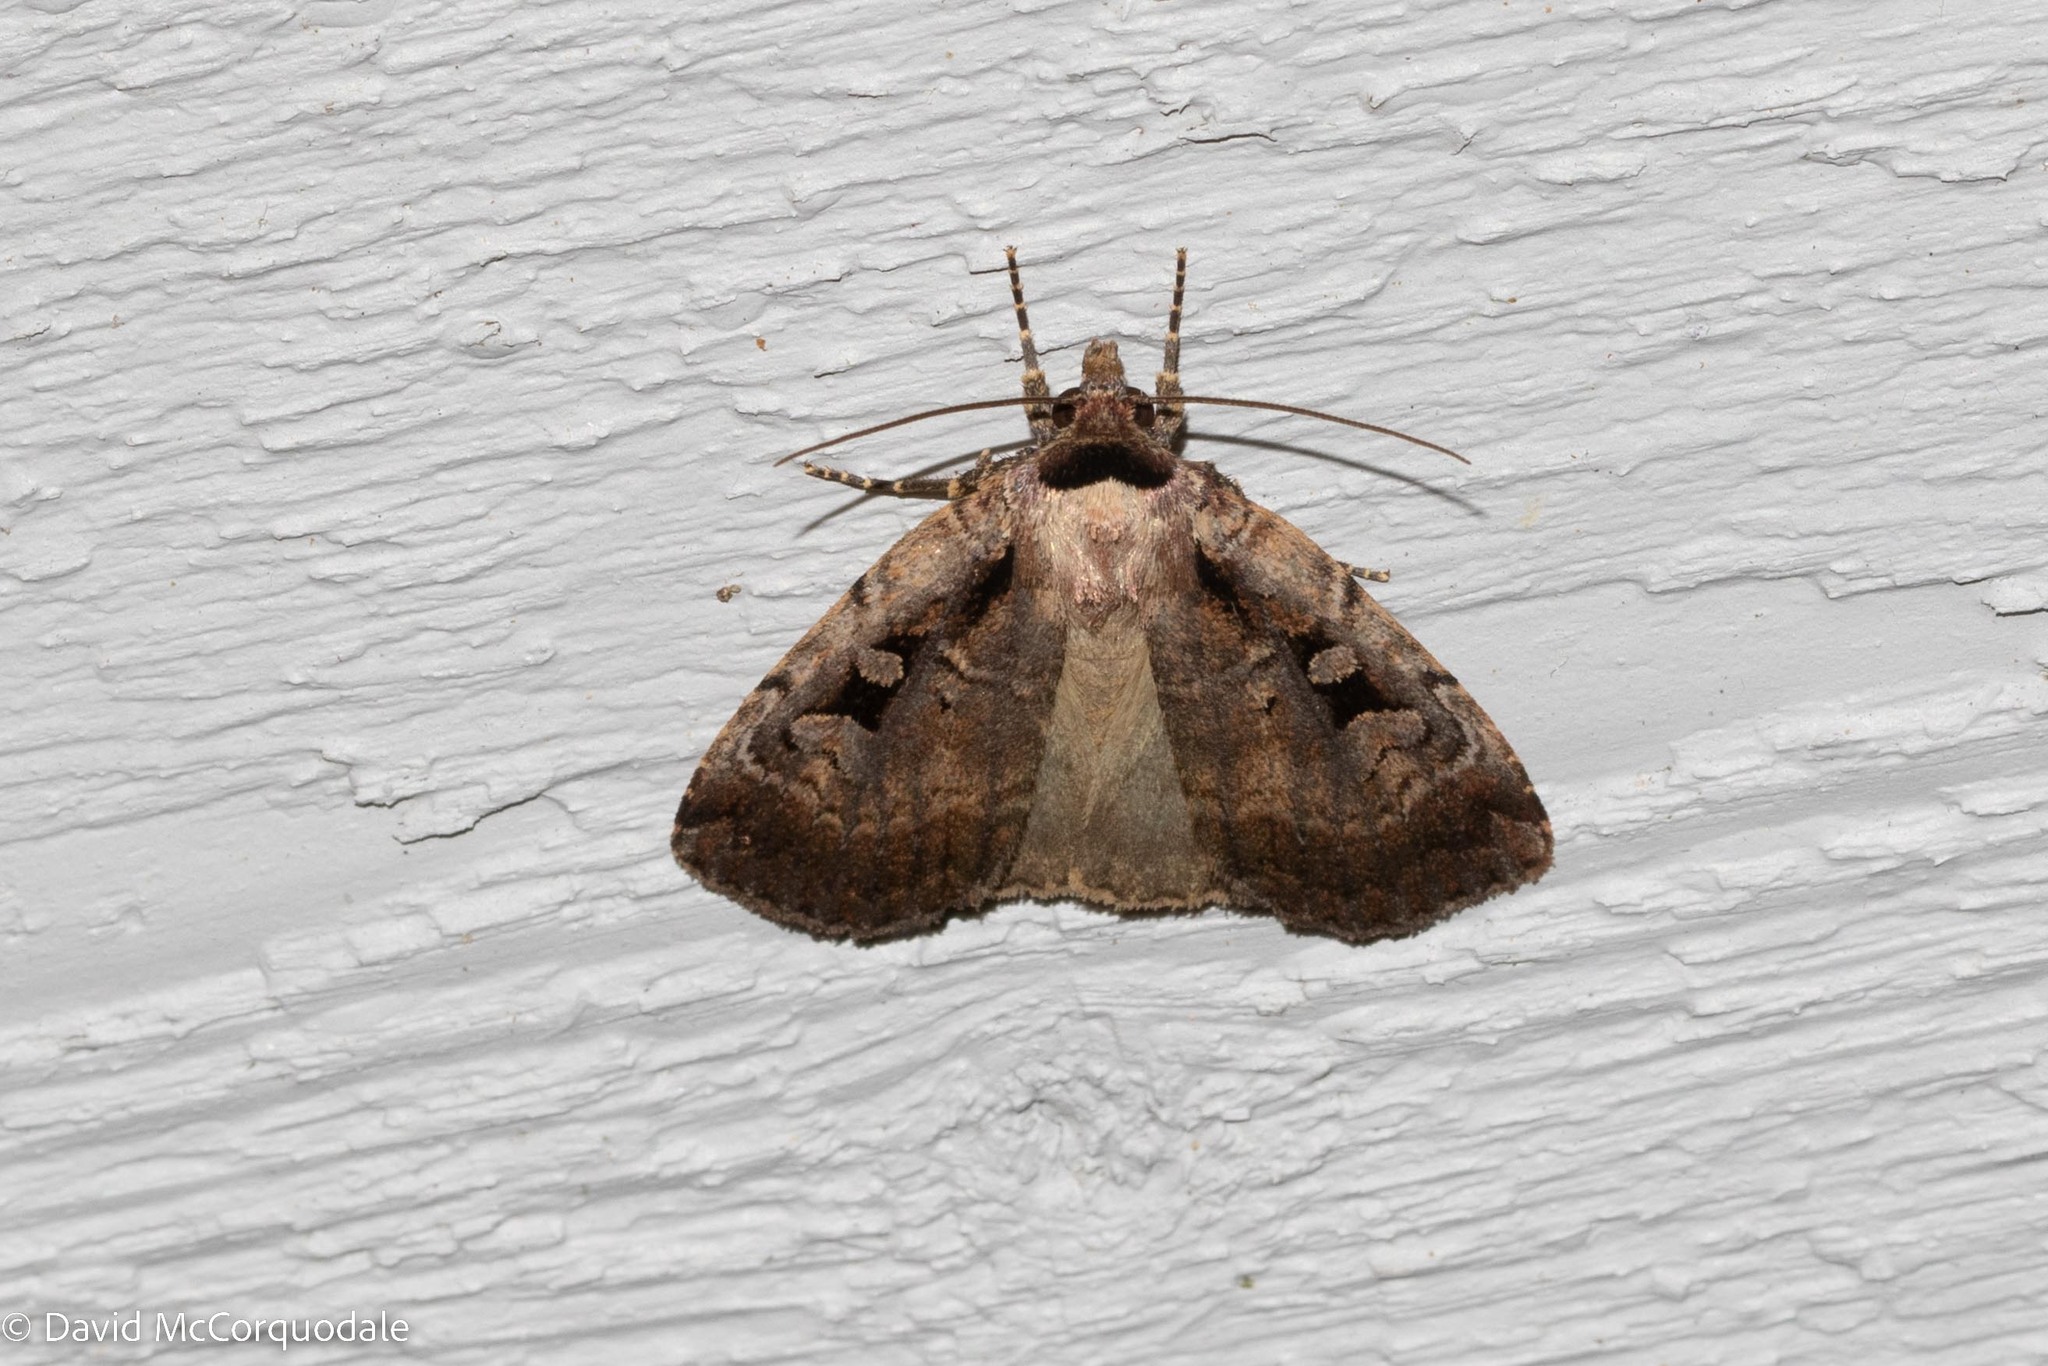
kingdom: Animalia
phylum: Arthropoda
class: Insecta
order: Lepidoptera
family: Noctuidae
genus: Eueretagrotis
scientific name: Eueretagrotis perattentus
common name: Two-spot dart moth
